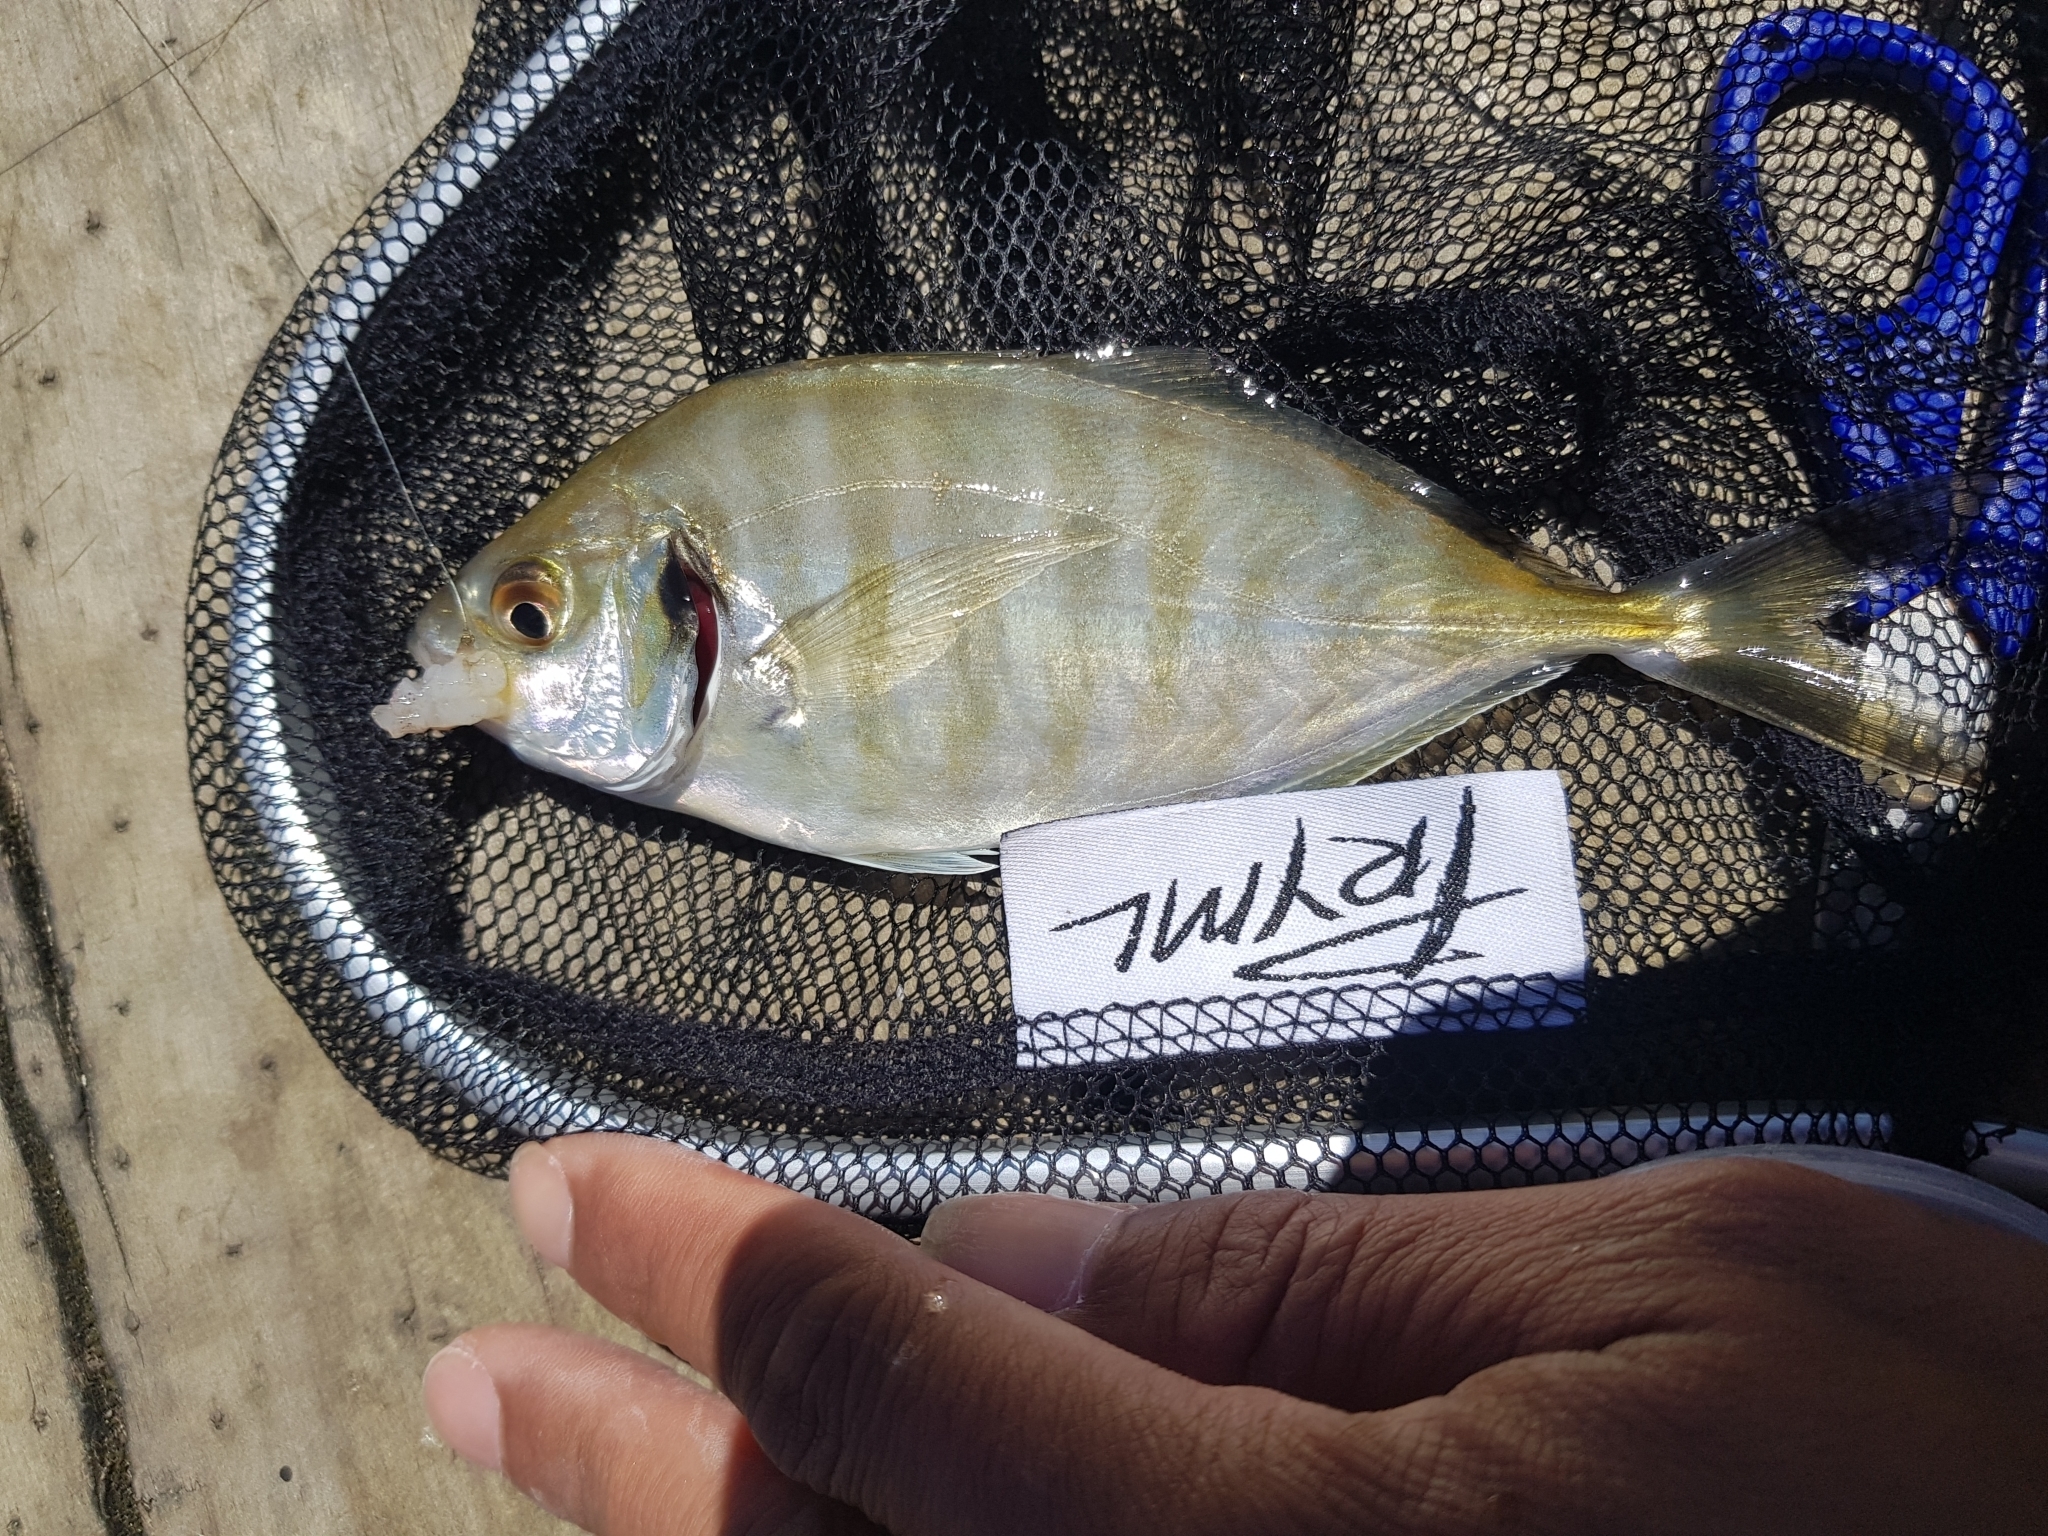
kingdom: Animalia
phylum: Chordata
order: Perciformes
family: Carangidae
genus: Pseudocaranx
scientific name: Pseudocaranx dentex
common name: White trevally
